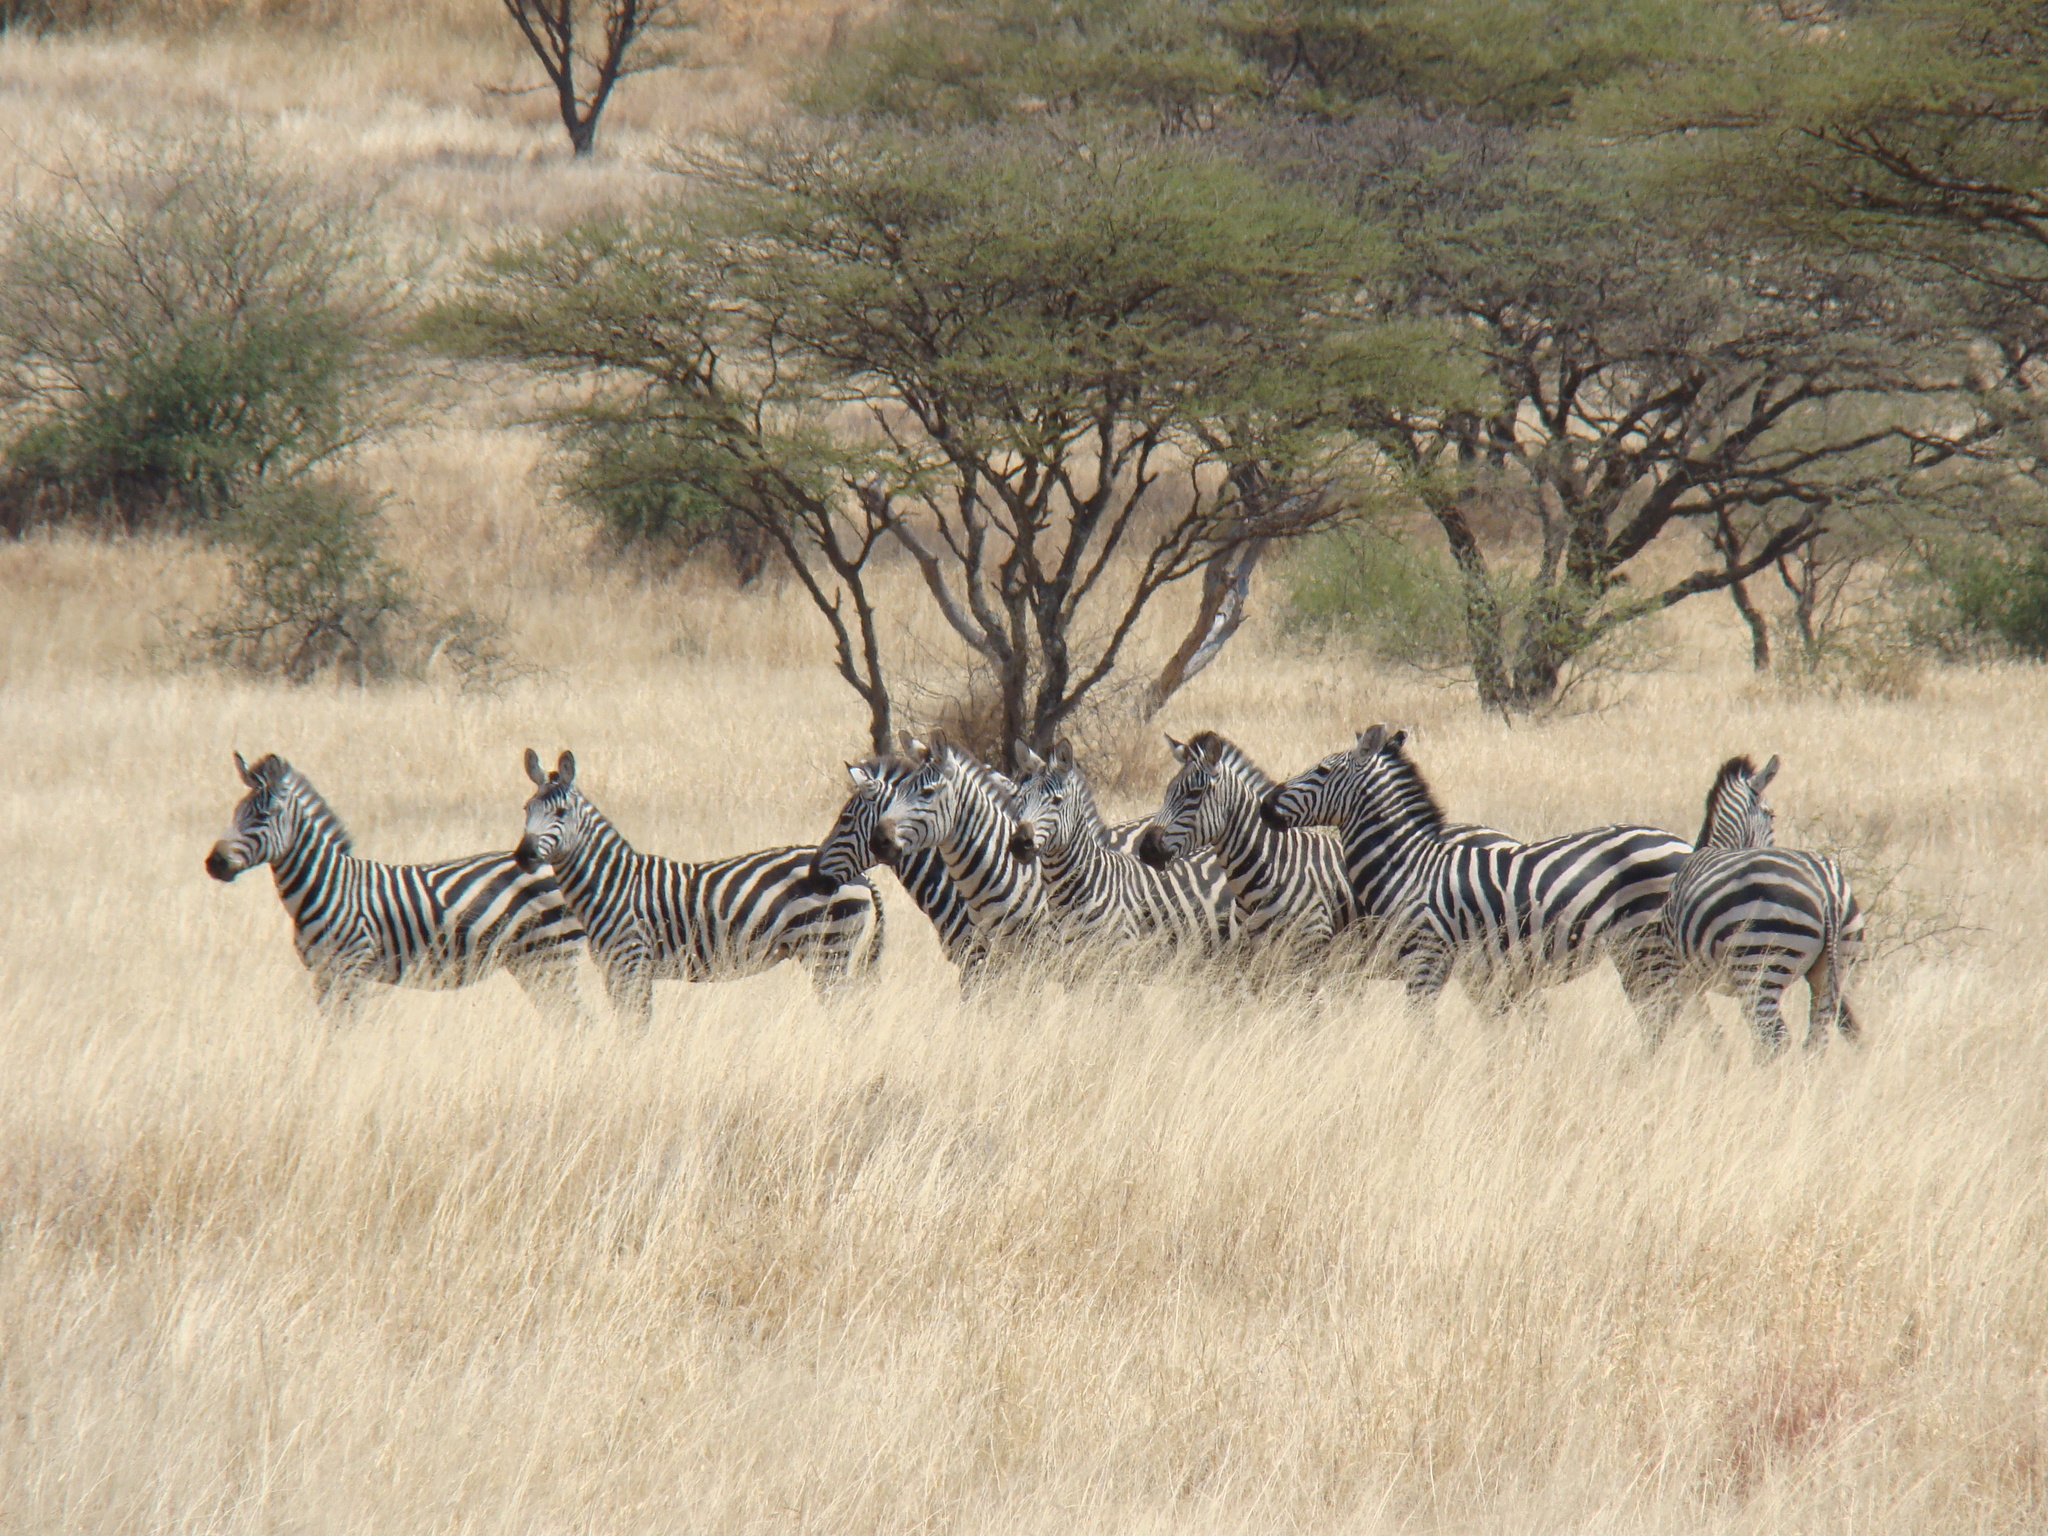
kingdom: Animalia
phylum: Chordata
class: Mammalia
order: Perissodactyla
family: Equidae
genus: Equus
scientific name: Equus quagga
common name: Plains zebra
